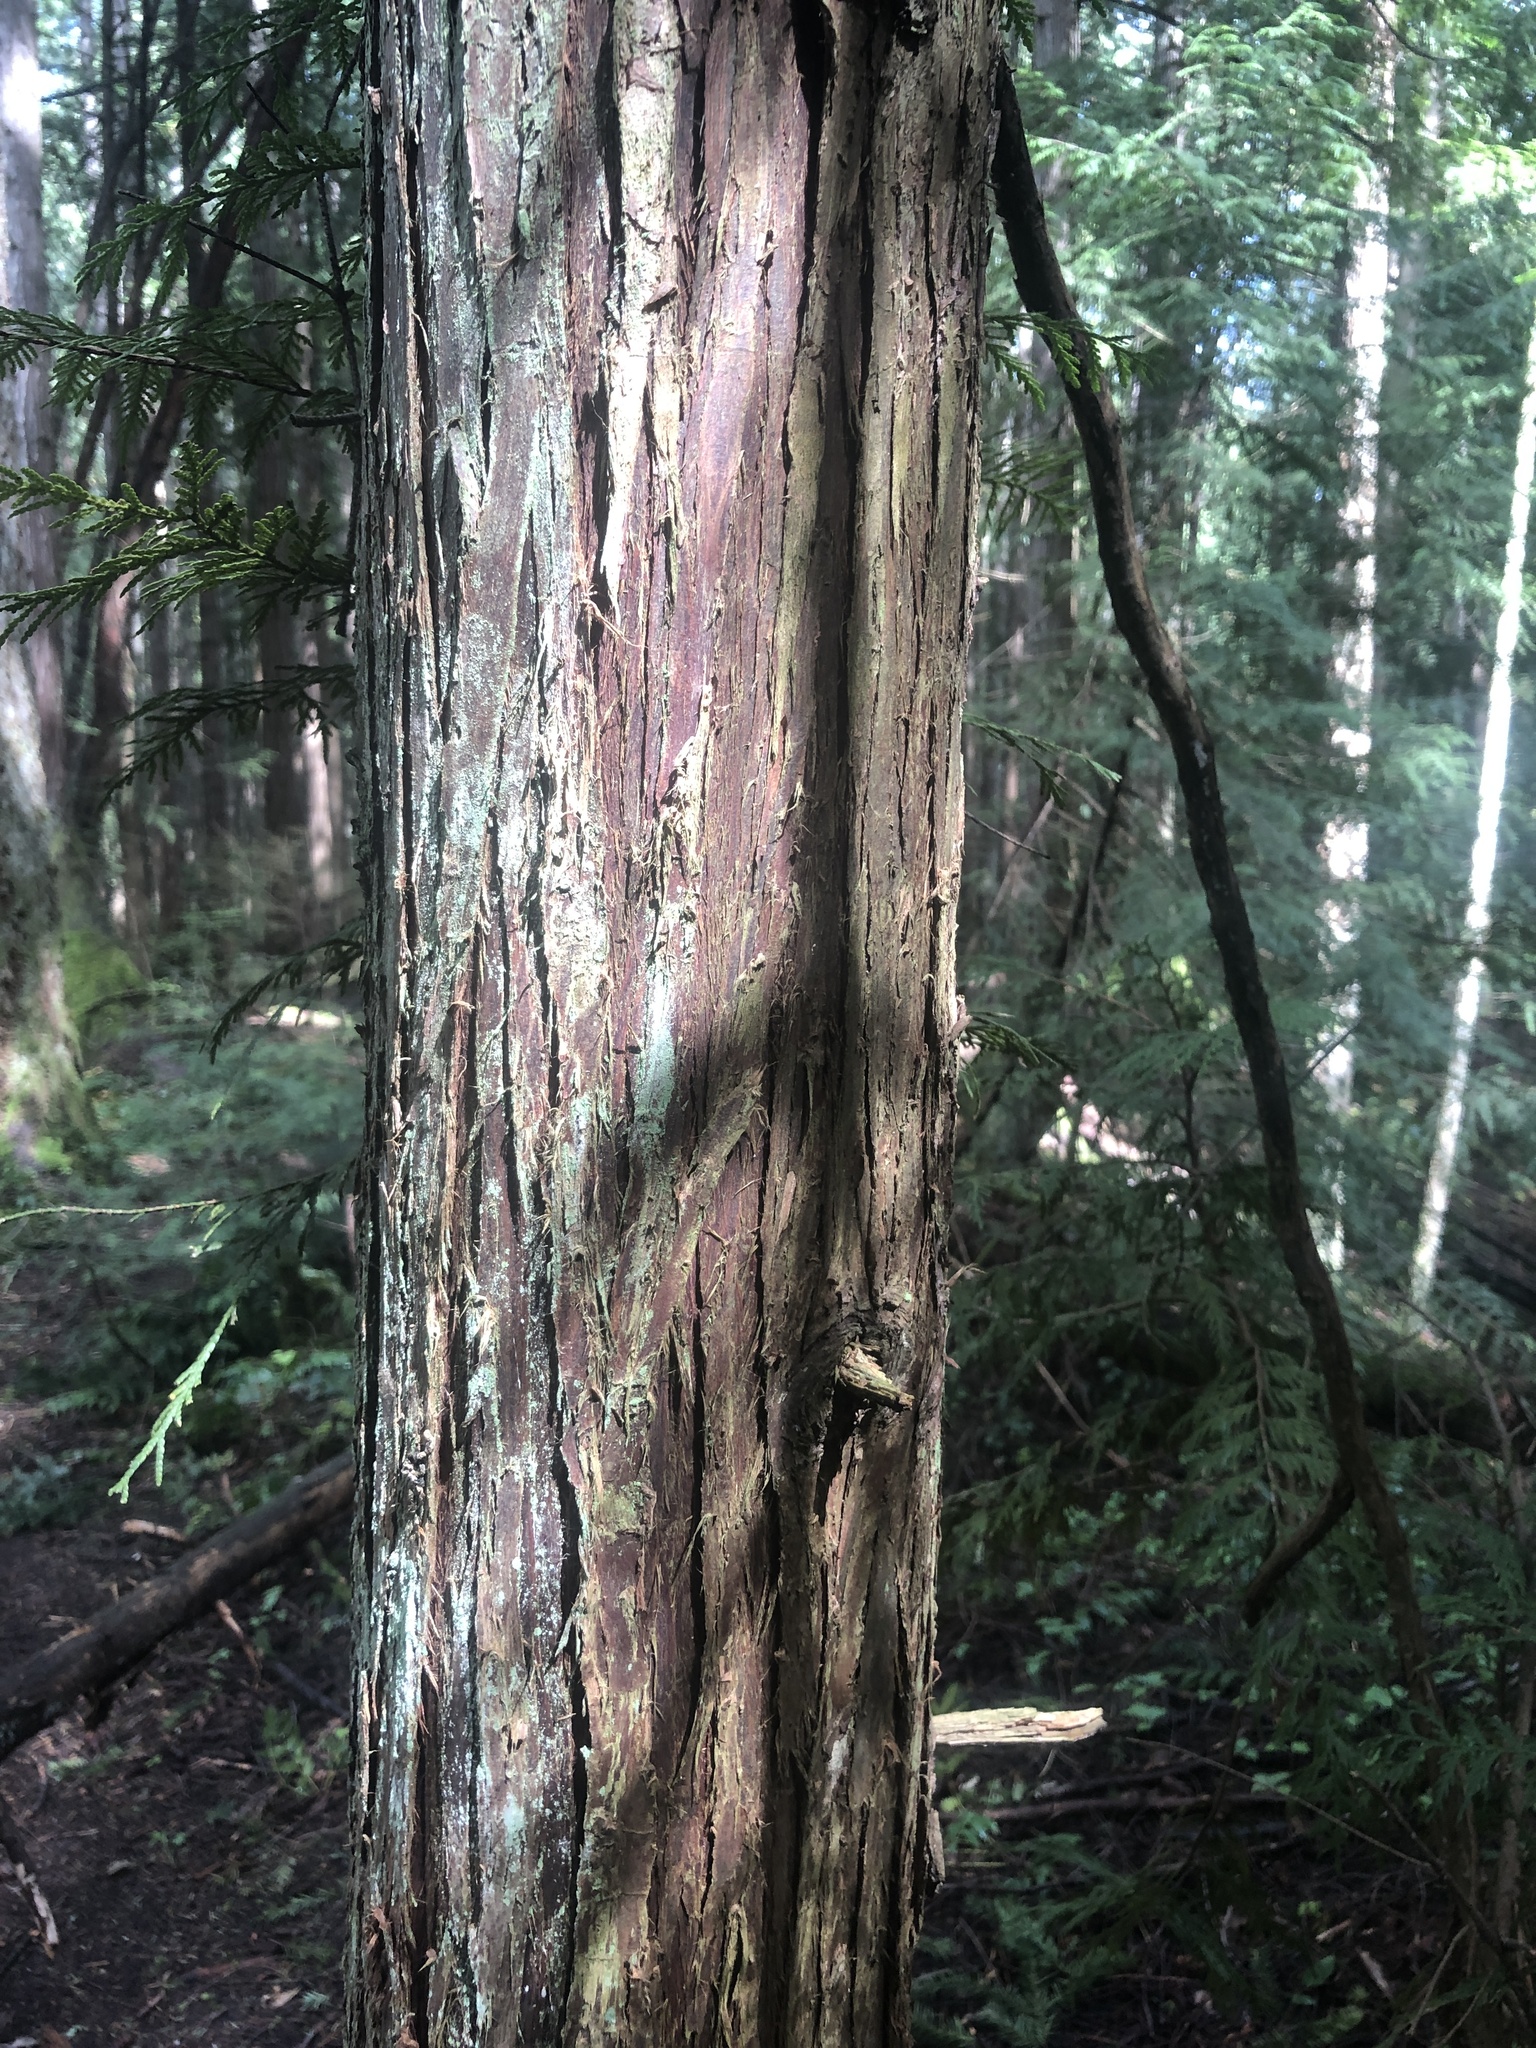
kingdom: Plantae
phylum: Tracheophyta
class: Pinopsida
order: Pinales
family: Cupressaceae
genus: Thuja
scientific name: Thuja plicata
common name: Western red-cedar
